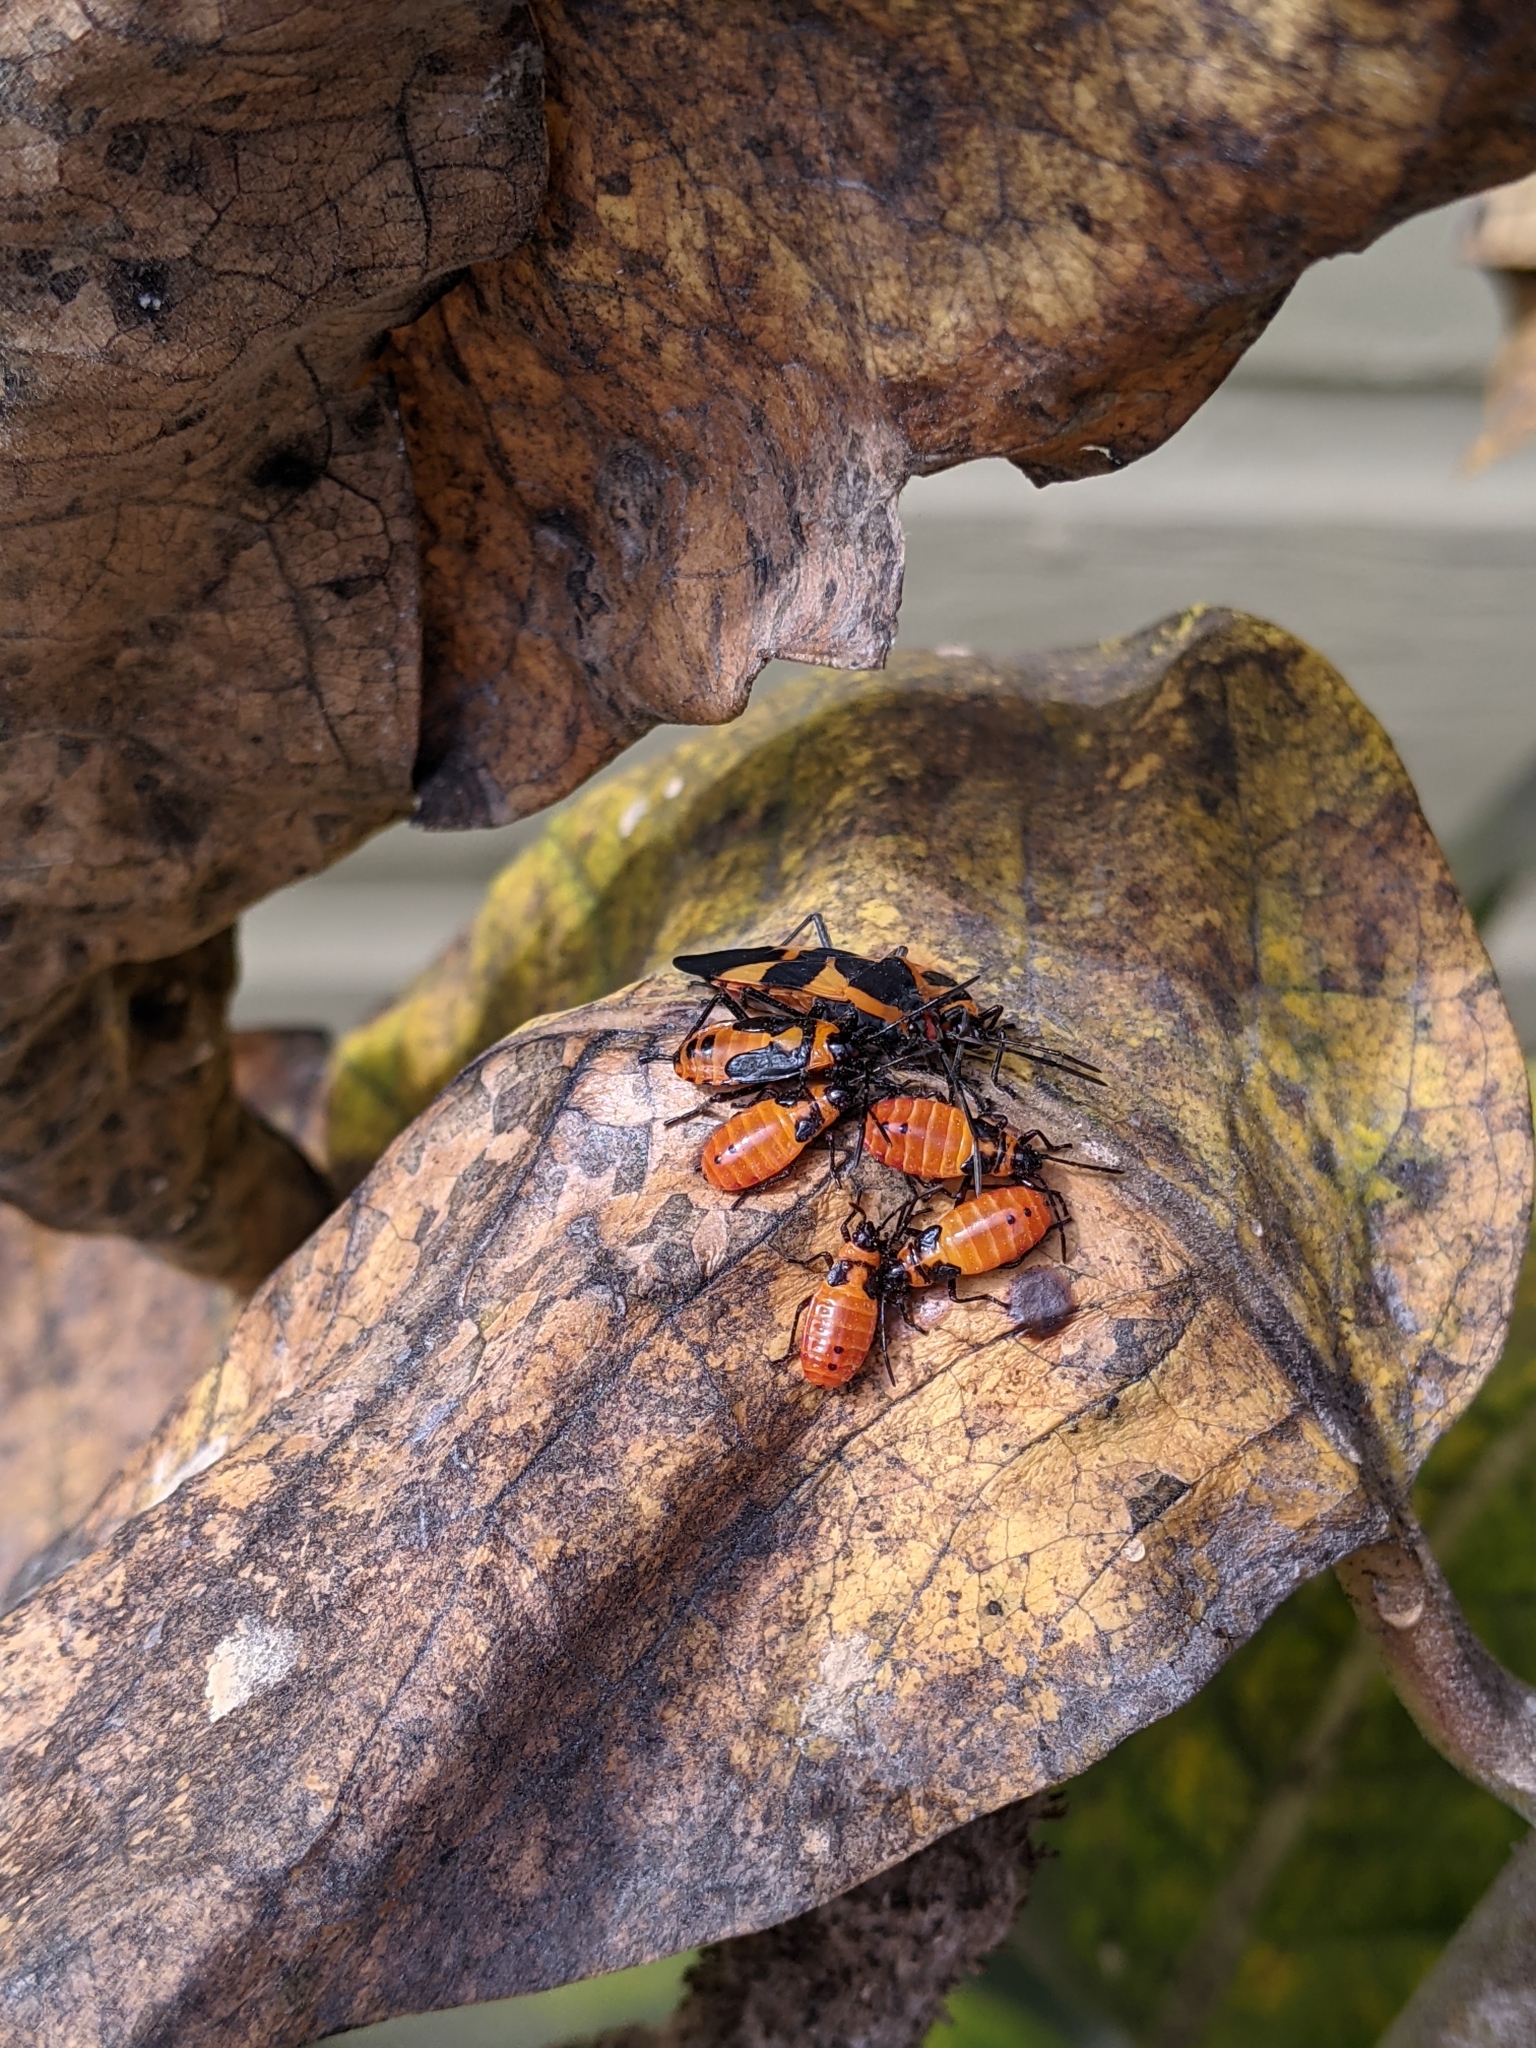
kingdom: Animalia
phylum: Arthropoda
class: Insecta
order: Hemiptera
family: Lygaeidae
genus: Oncopeltus
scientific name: Oncopeltus fasciatus
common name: Large milkweed bug
